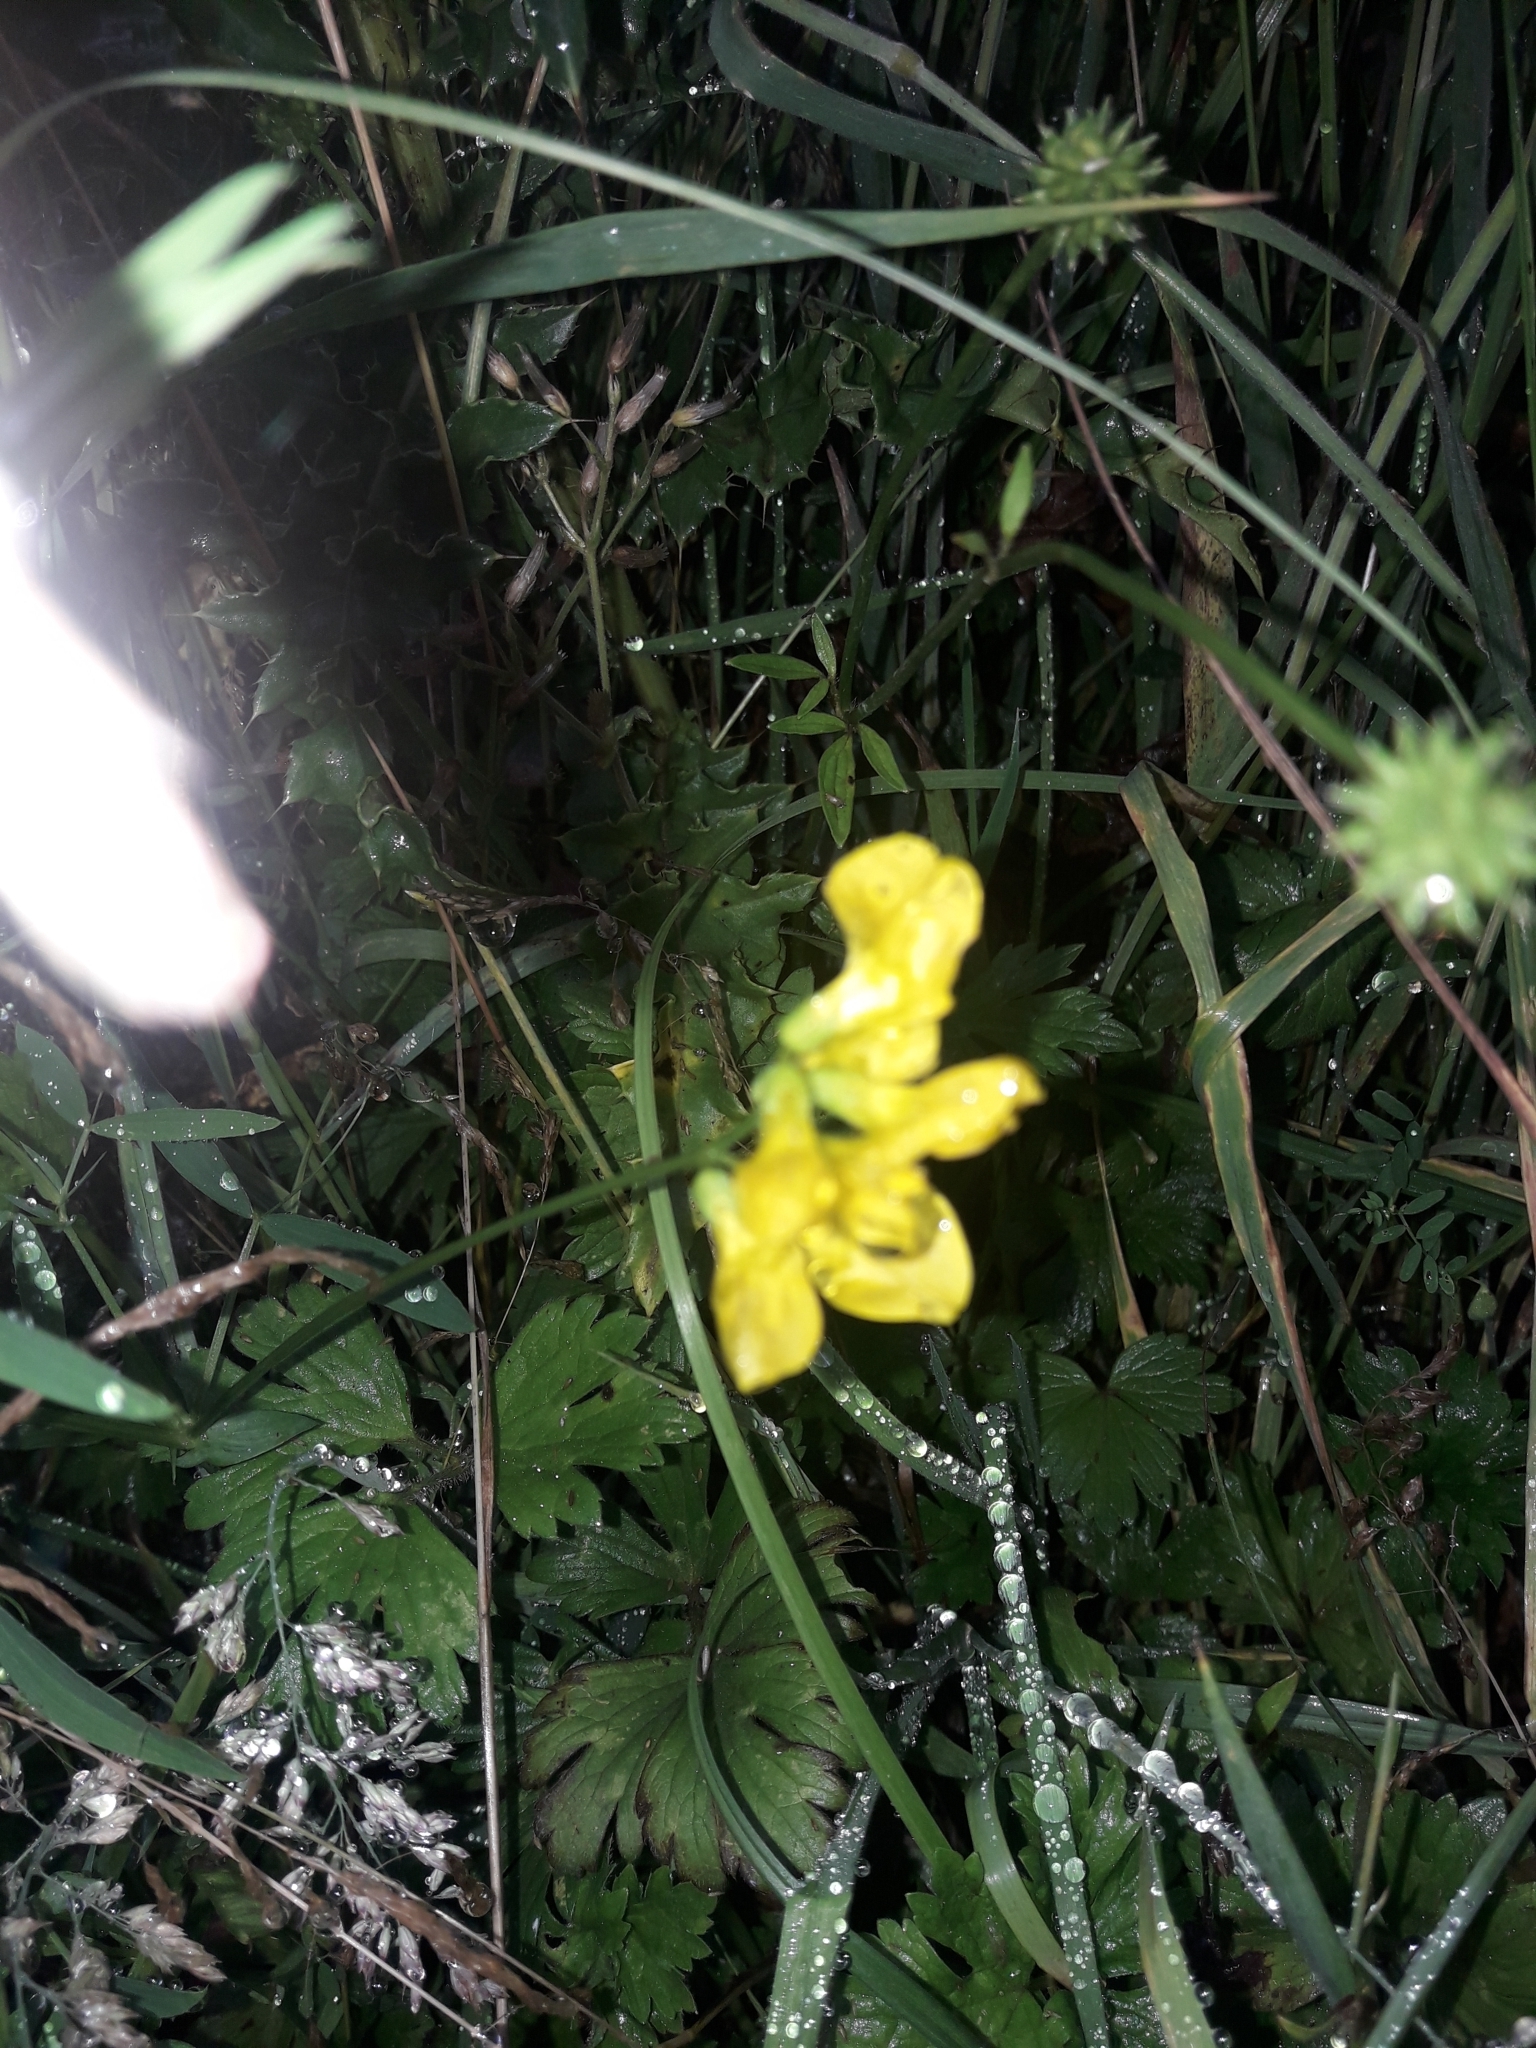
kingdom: Plantae
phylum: Tracheophyta
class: Magnoliopsida
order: Fabales
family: Fabaceae
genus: Lathyrus
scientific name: Lathyrus pratensis
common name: Meadow vetchling
